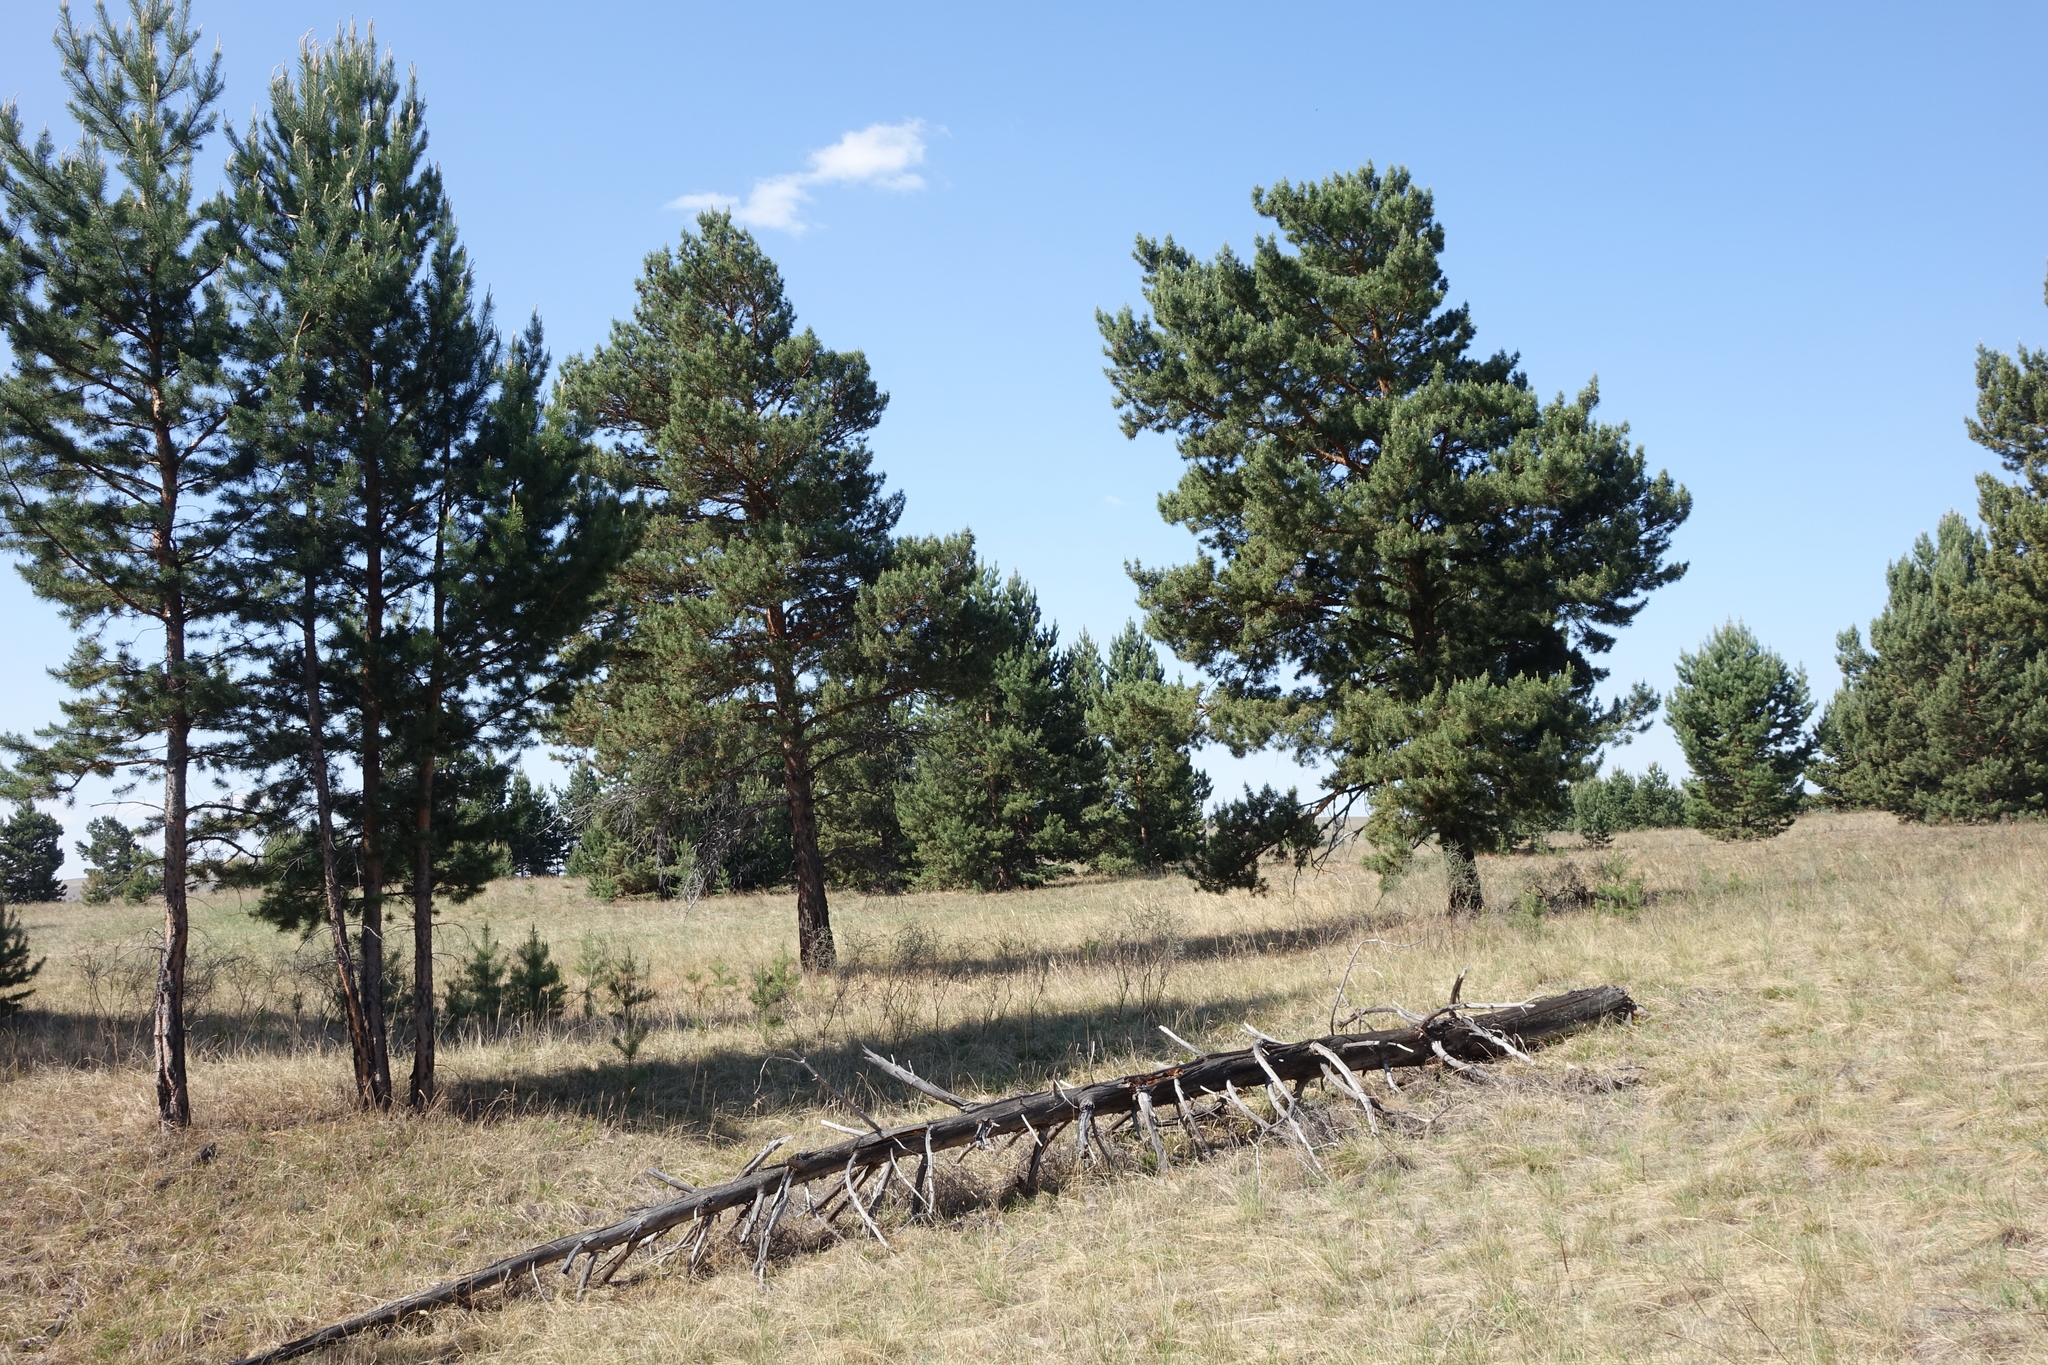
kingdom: Plantae
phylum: Tracheophyta
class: Pinopsida
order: Pinales
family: Pinaceae
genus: Pinus
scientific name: Pinus sylvestris
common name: Scots pine
